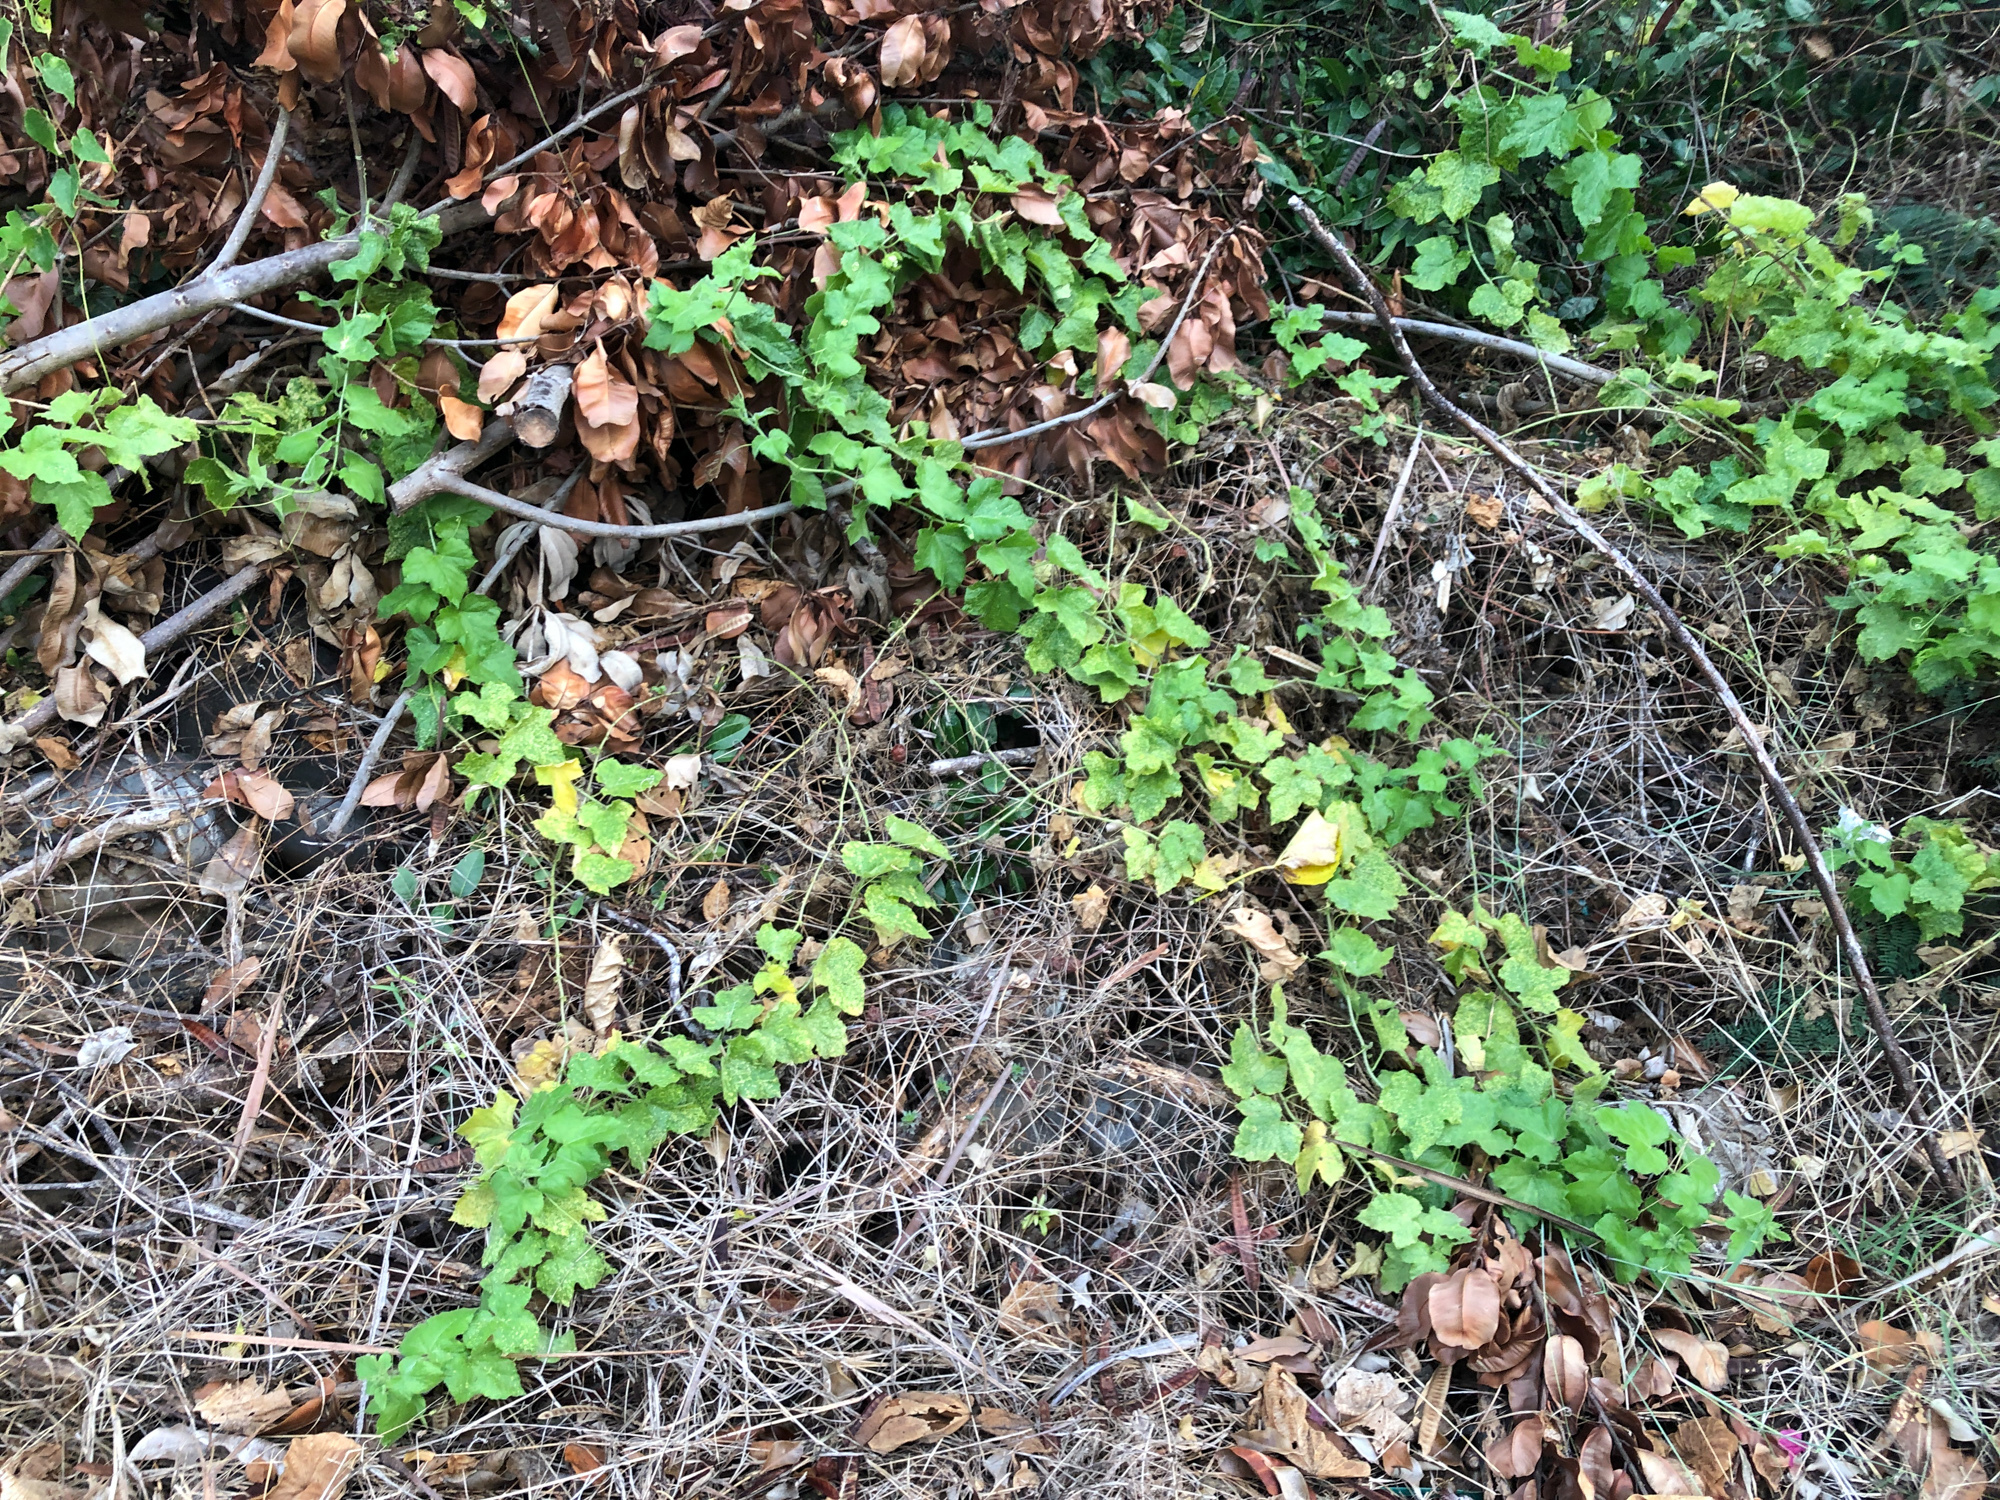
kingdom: Plantae
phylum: Tracheophyta
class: Magnoliopsida
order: Malpighiales
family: Passifloraceae
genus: Passiflora
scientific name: Passiflora vesicaria
